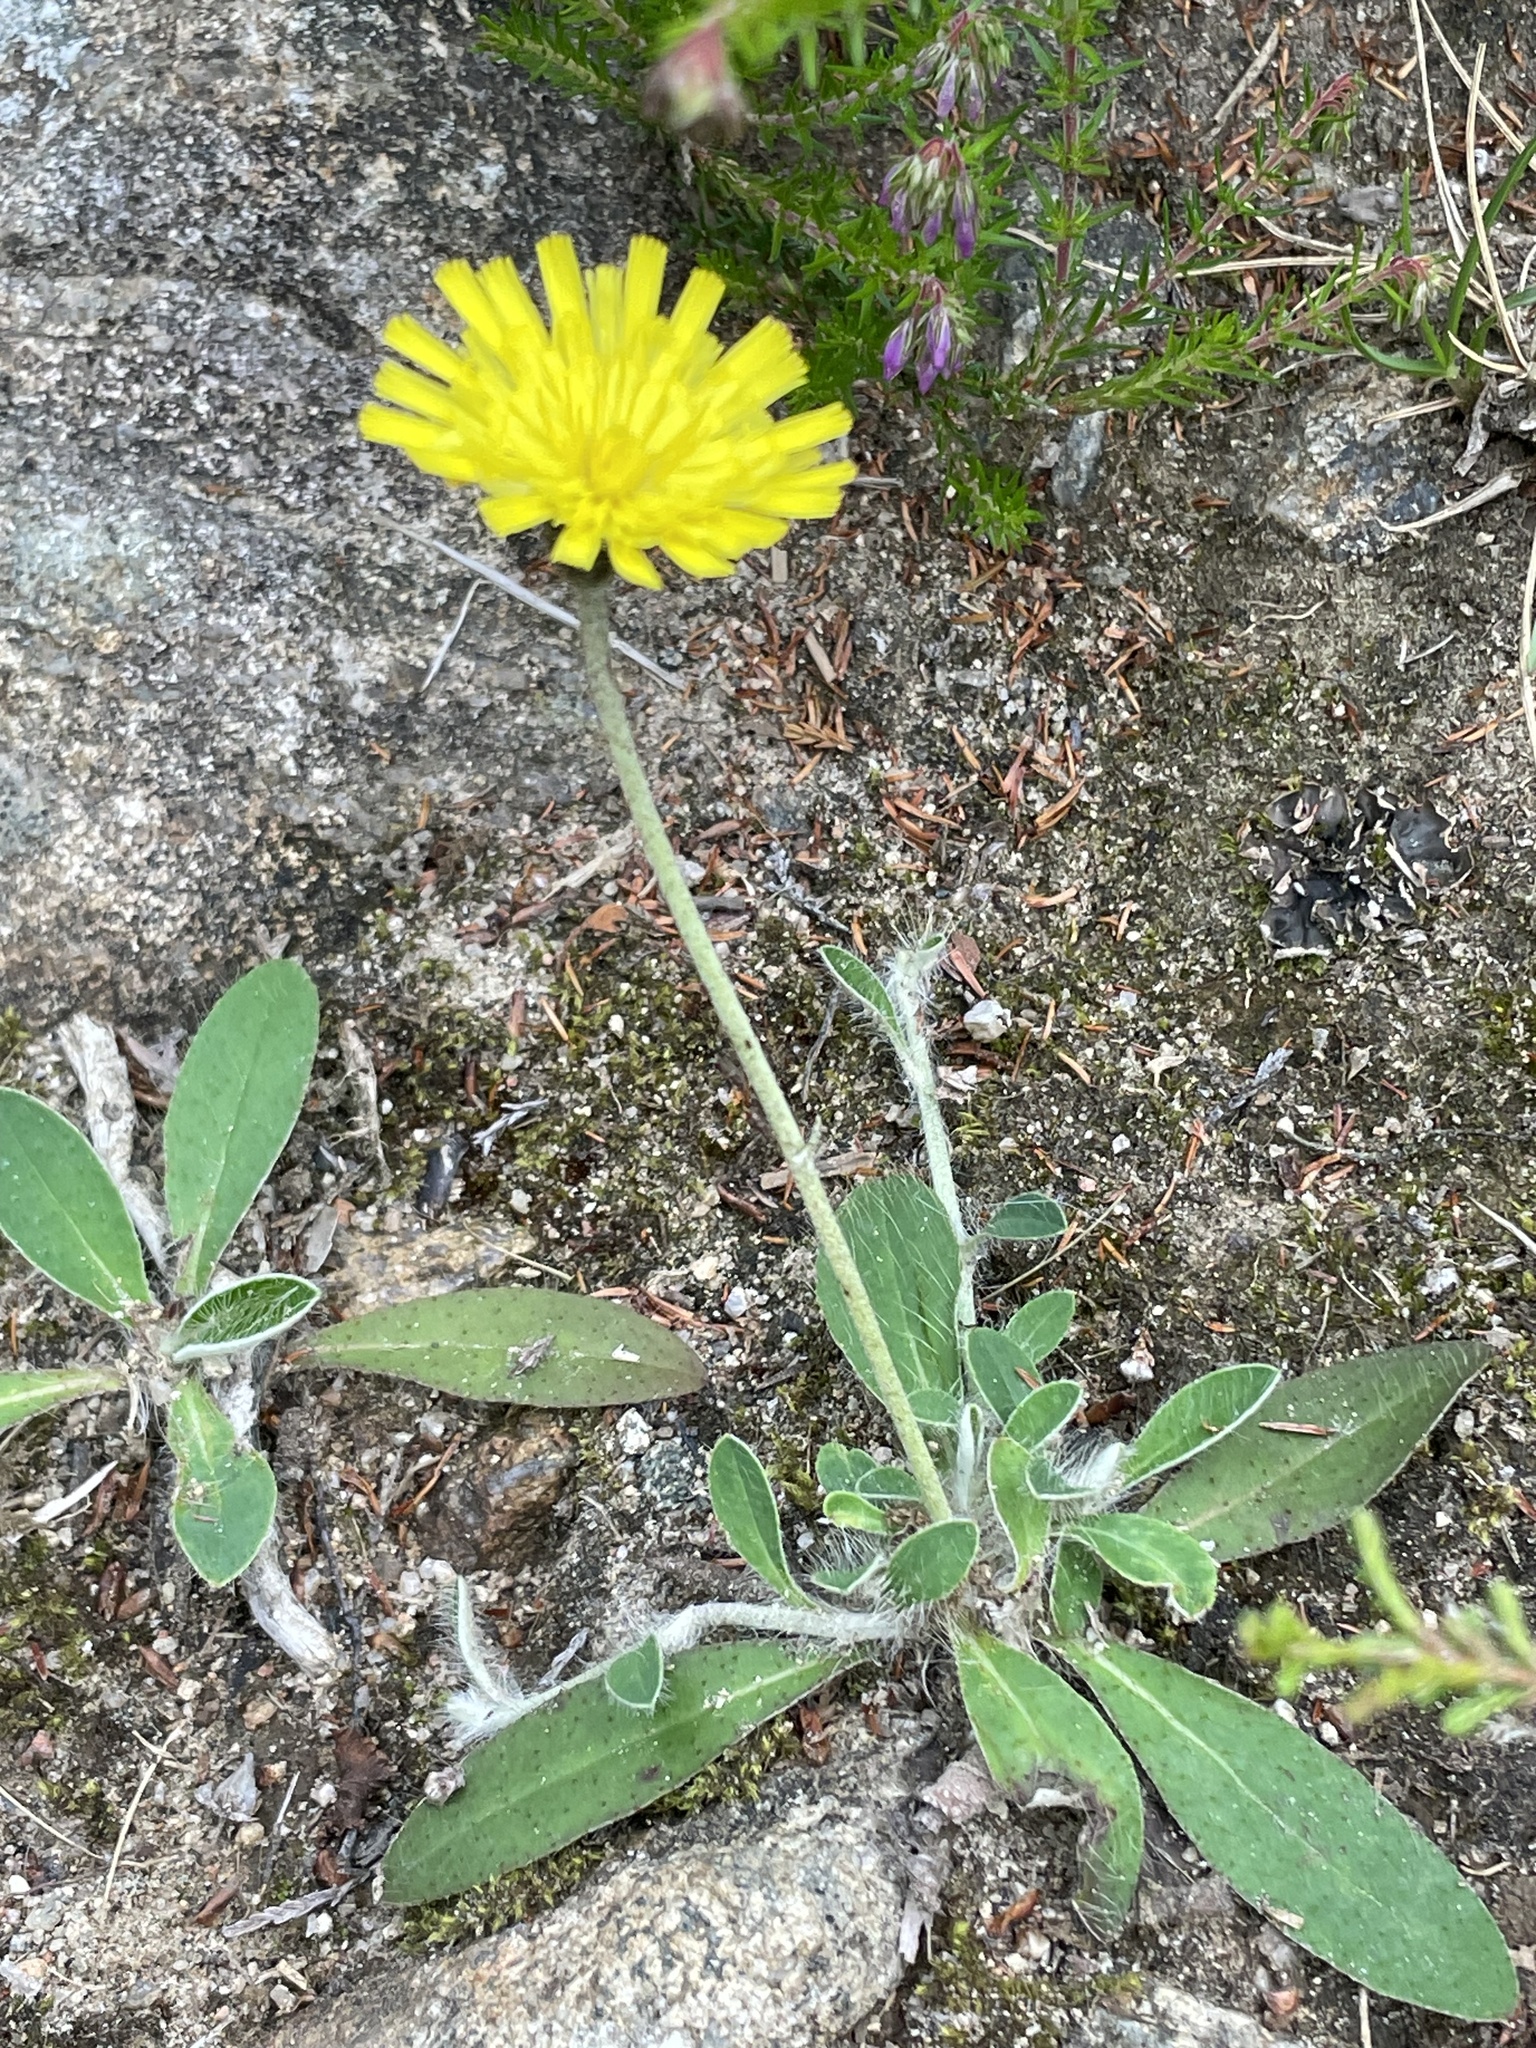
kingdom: Plantae
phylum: Tracheophyta
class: Magnoliopsida
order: Asterales
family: Asteraceae
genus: Pilosella
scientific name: Pilosella officinarum
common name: Mouse-ear hawkweed
